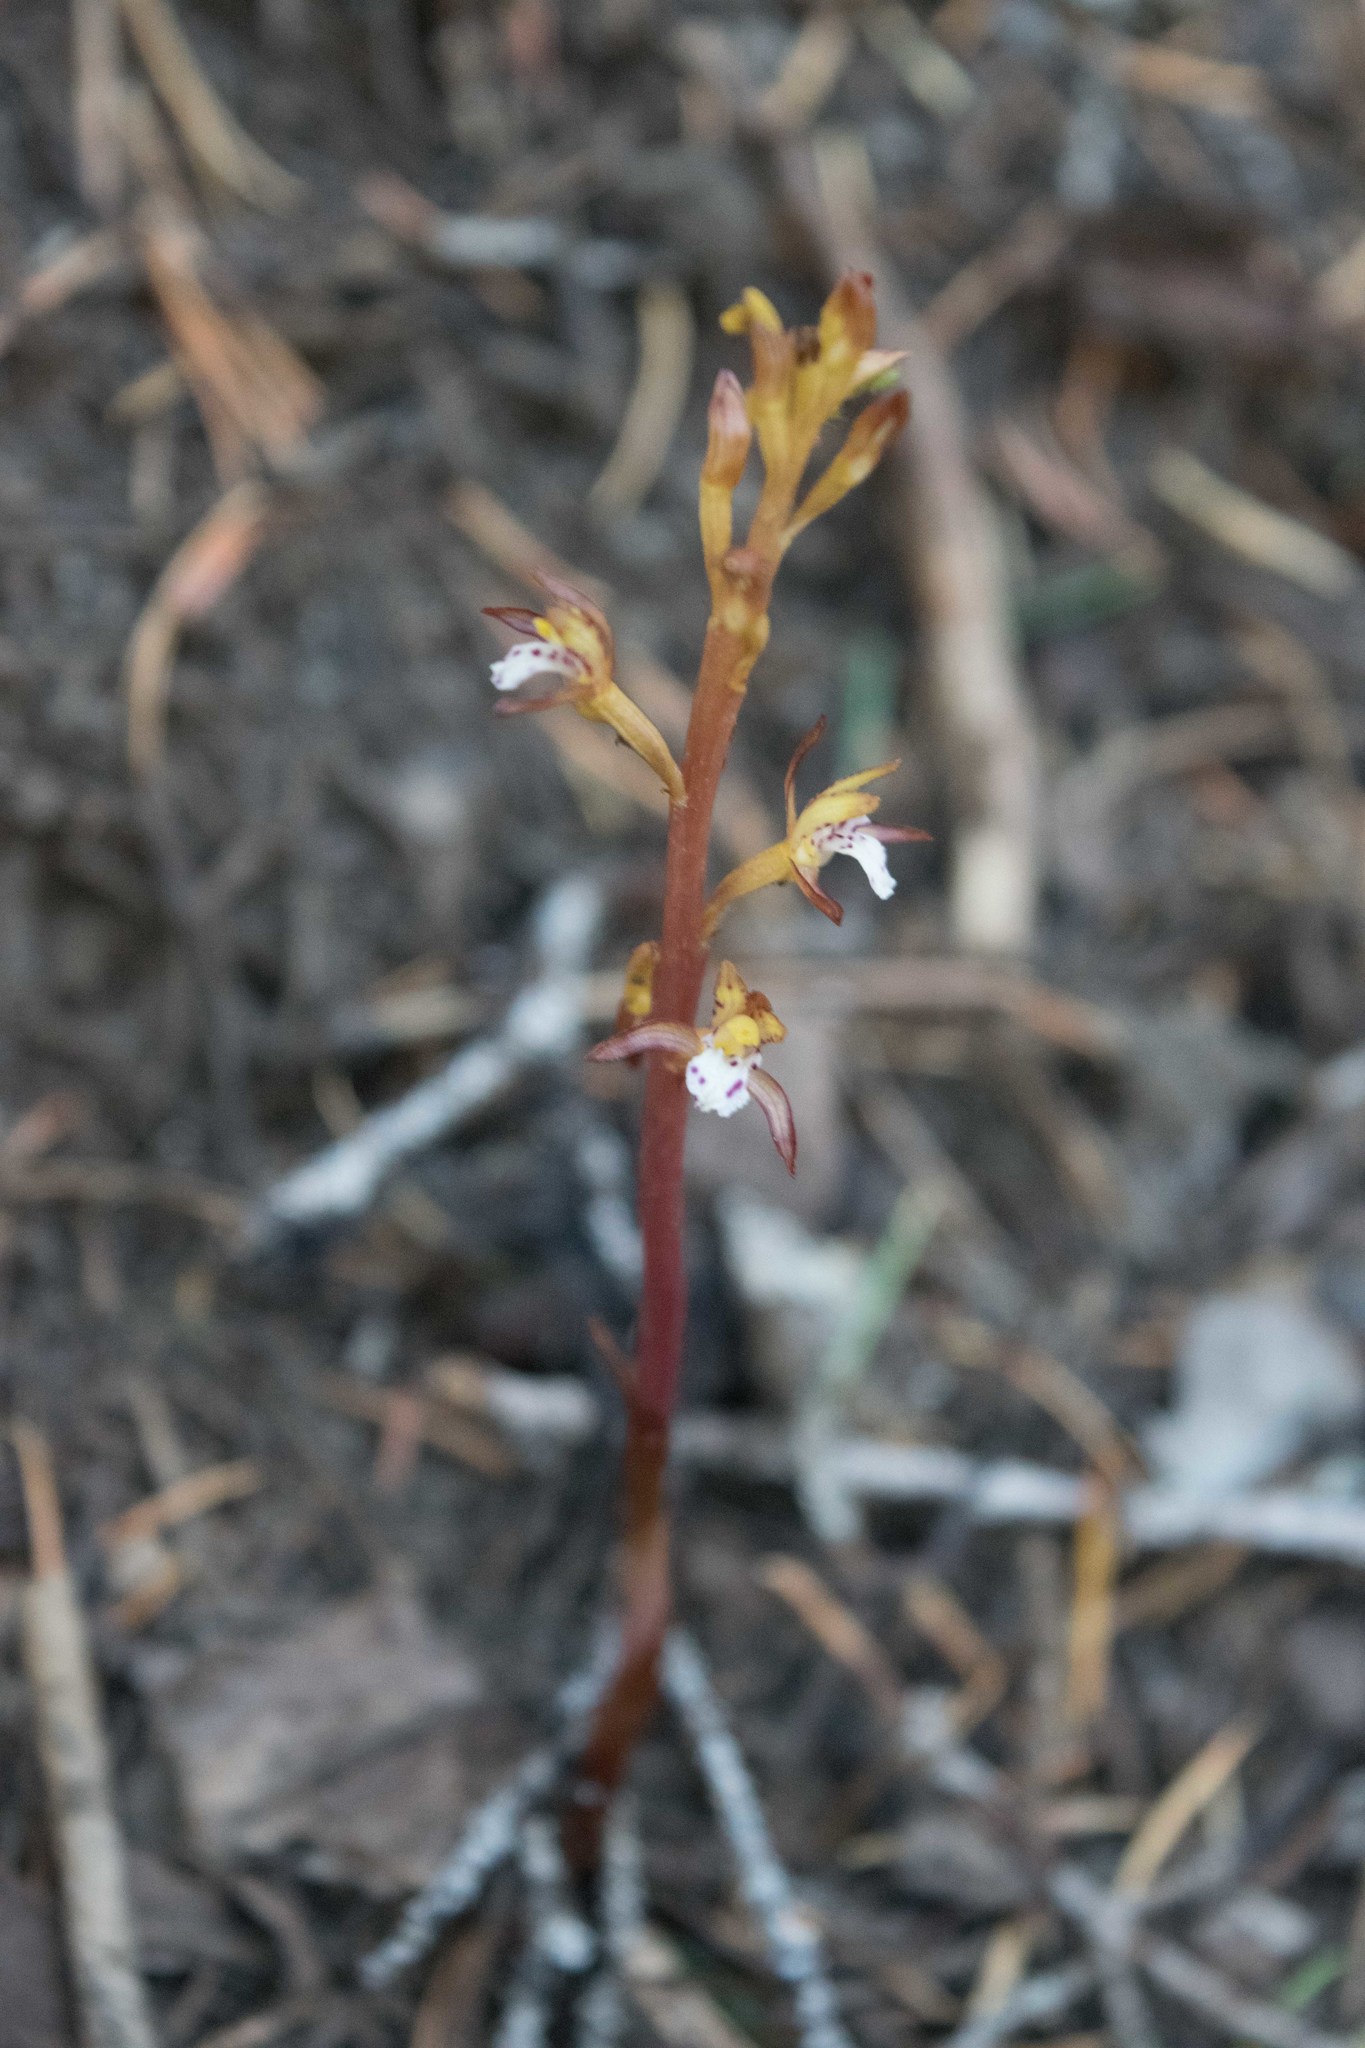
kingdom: Plantae
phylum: Tracheophyta
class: Liliopsida
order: Asparagales
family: Orchidaceae
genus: Corallorhiza
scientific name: Corallorhiza maculata
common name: Spotted coralroot
